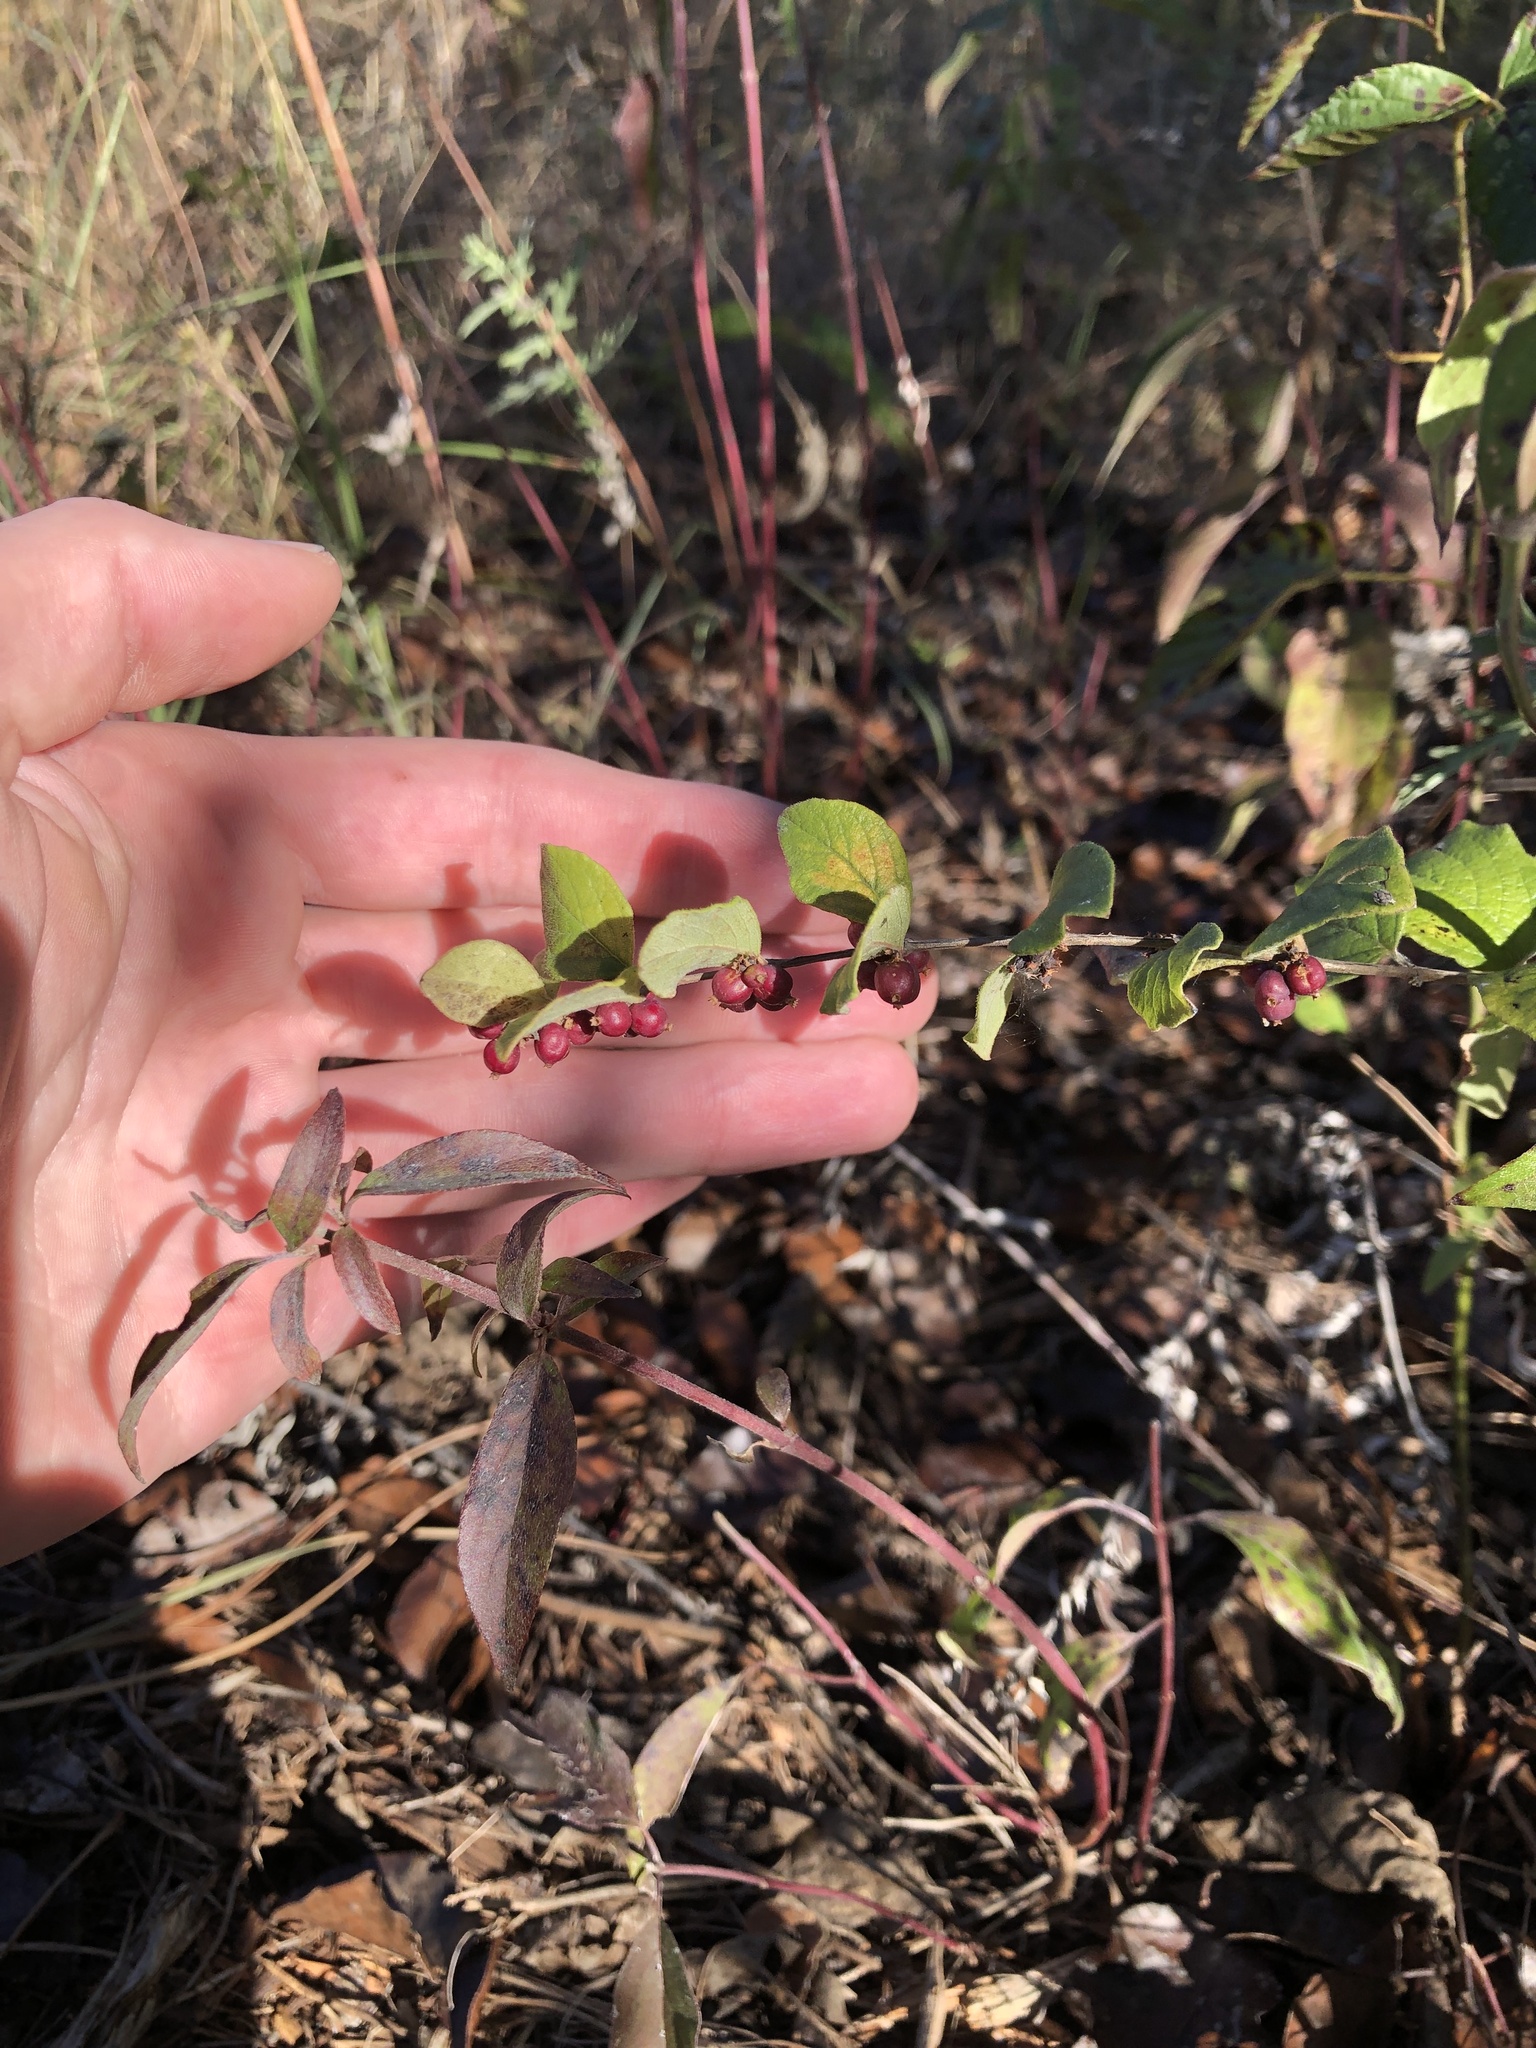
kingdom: Plantae
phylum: Tracheophyta
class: Magnoliopsida
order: Dipsacales
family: Caprifoliaceae
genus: Symphoricarpos
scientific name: Symphoricarpos orbiculatus
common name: Coralberry
